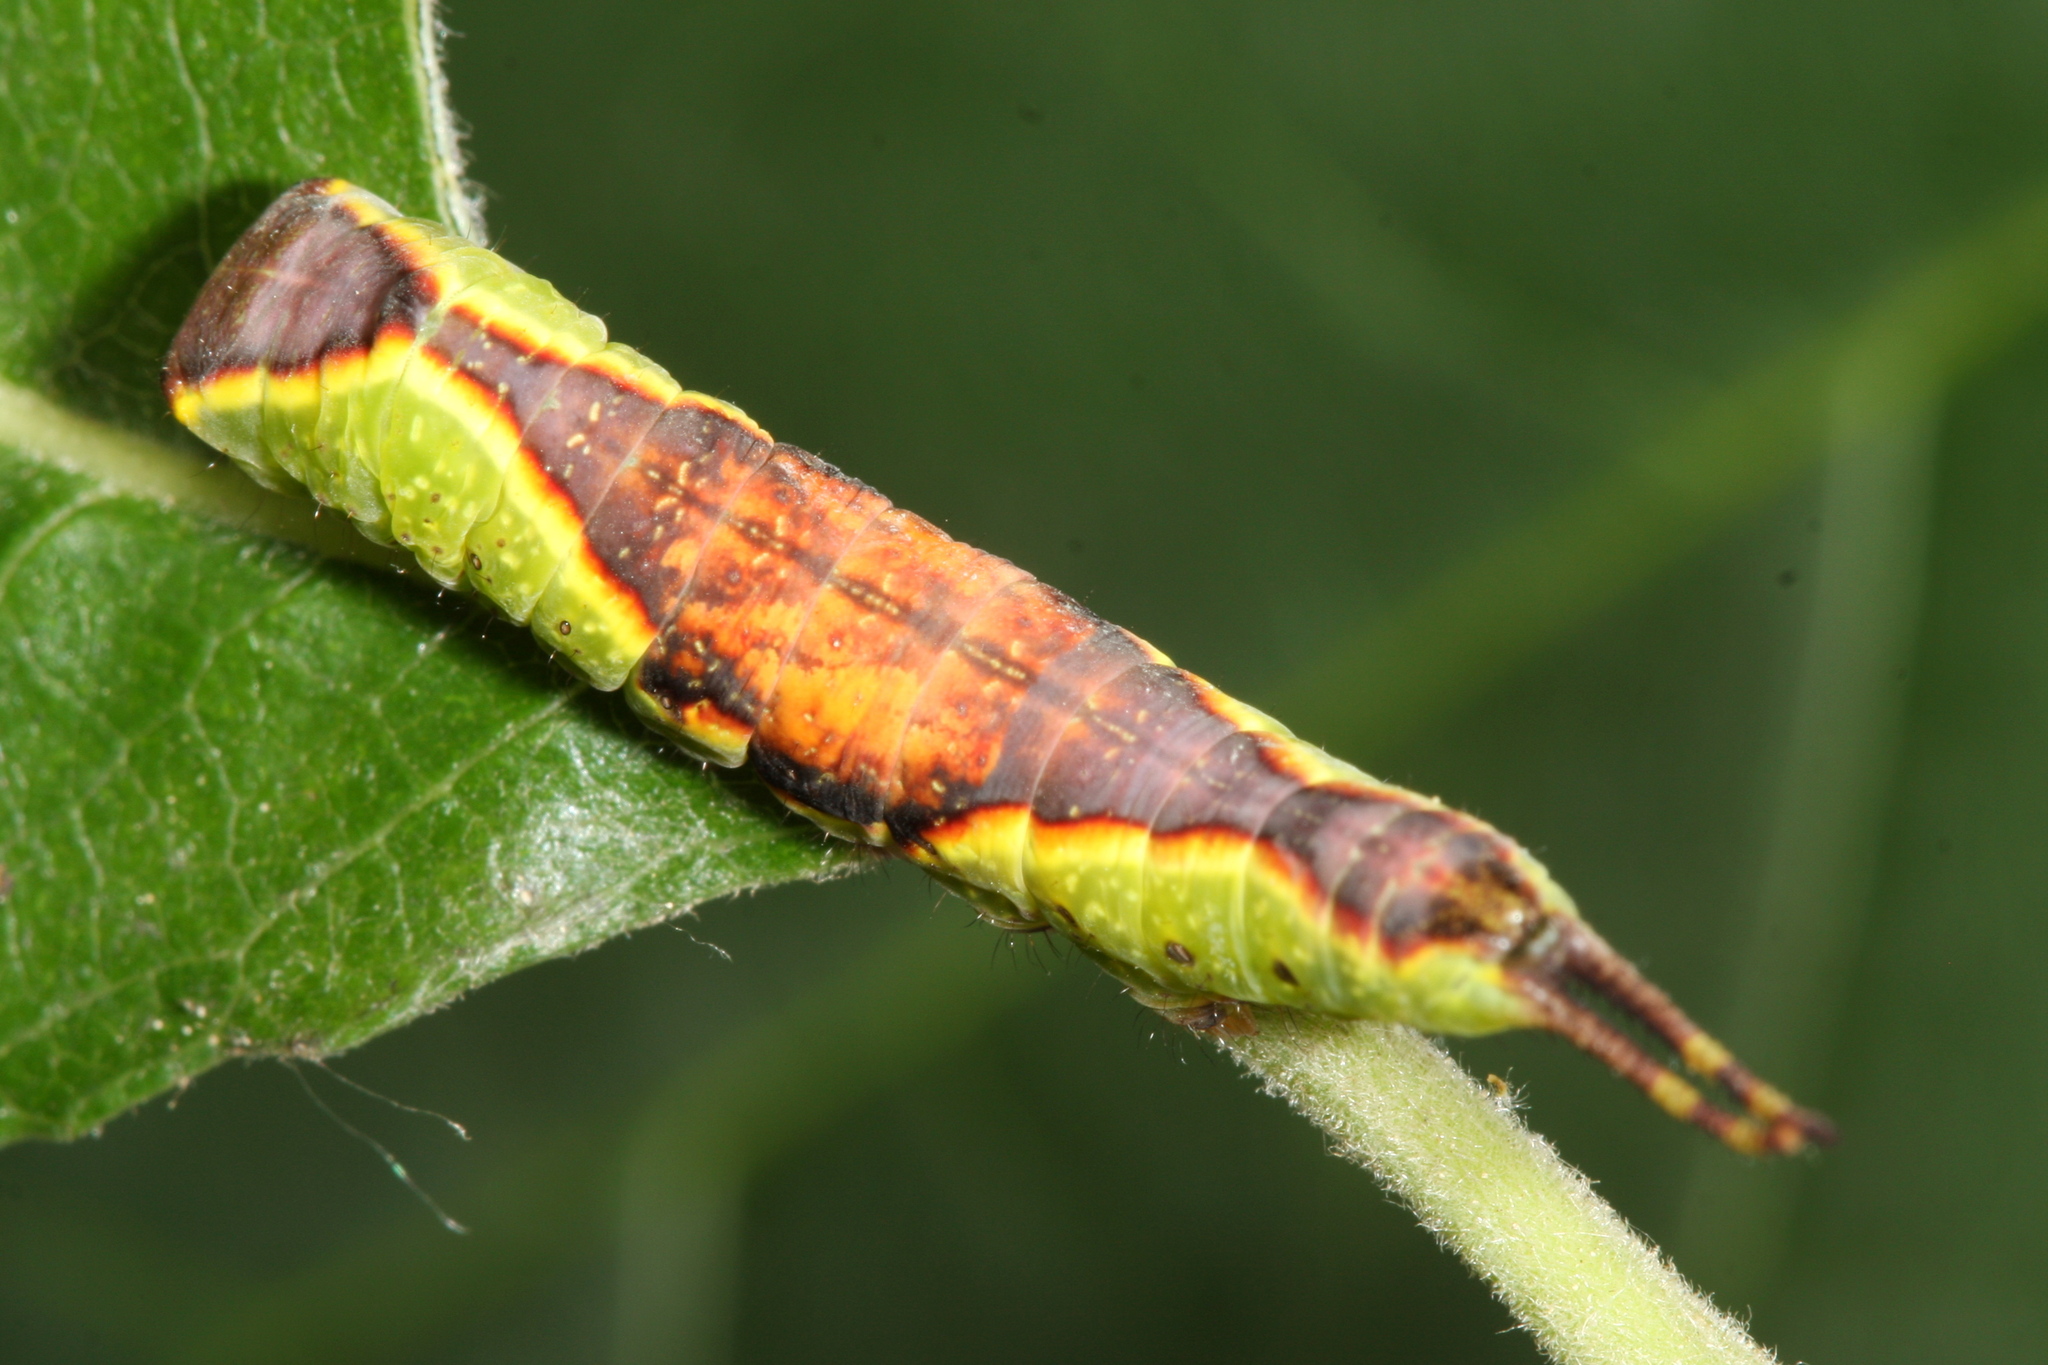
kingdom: Animalia
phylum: Arthropoda
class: Insecta
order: Lepidoptera
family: Notodontidae
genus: Furcula
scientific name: Furcula furcula
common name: Sallow kitten
